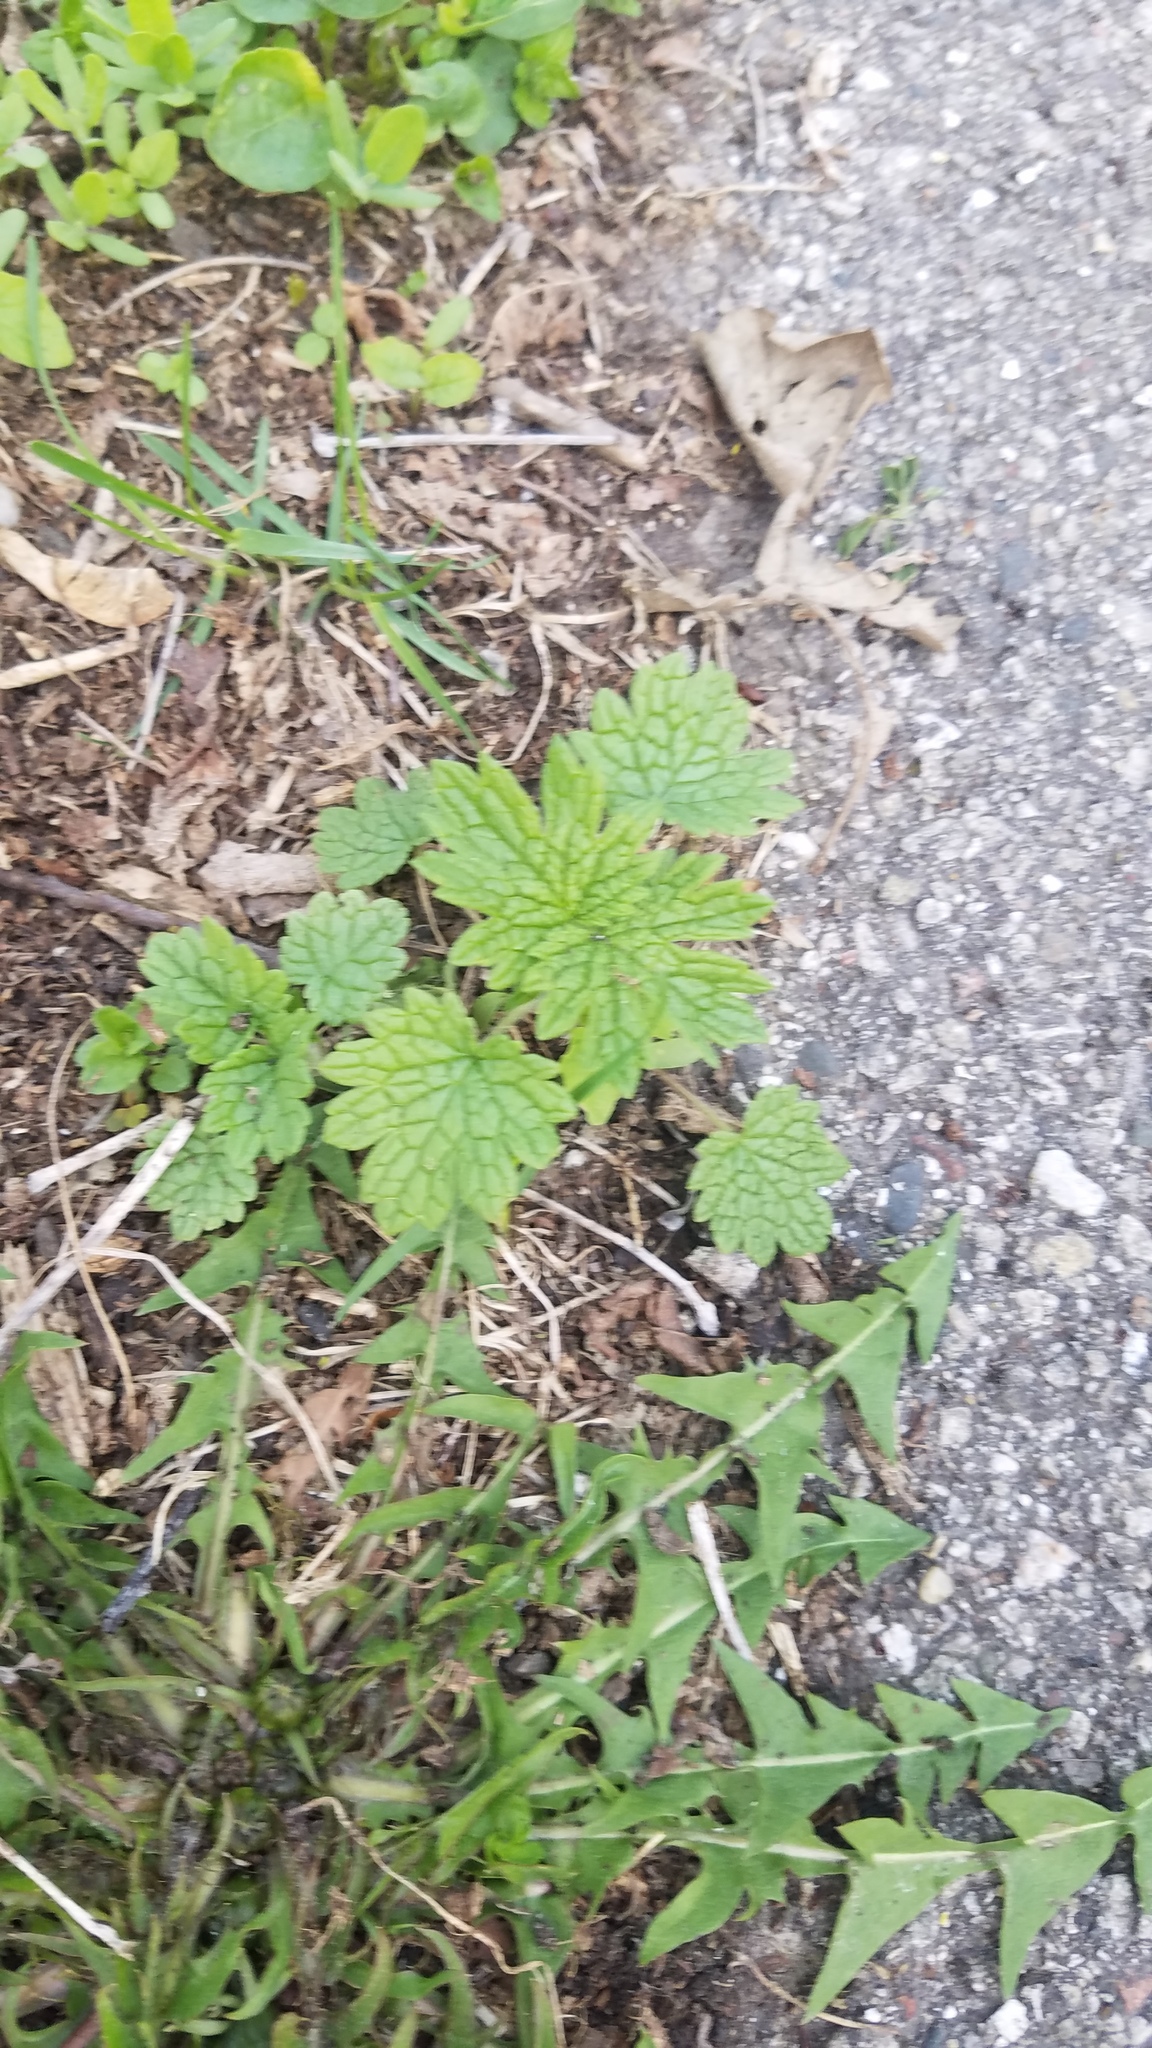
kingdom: Plantae
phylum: Tracheophyta
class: Magnoliopsida
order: Lamiales
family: Lamiaceae
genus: Leonurus
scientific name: Leonurus cardiaca
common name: Motherwort
